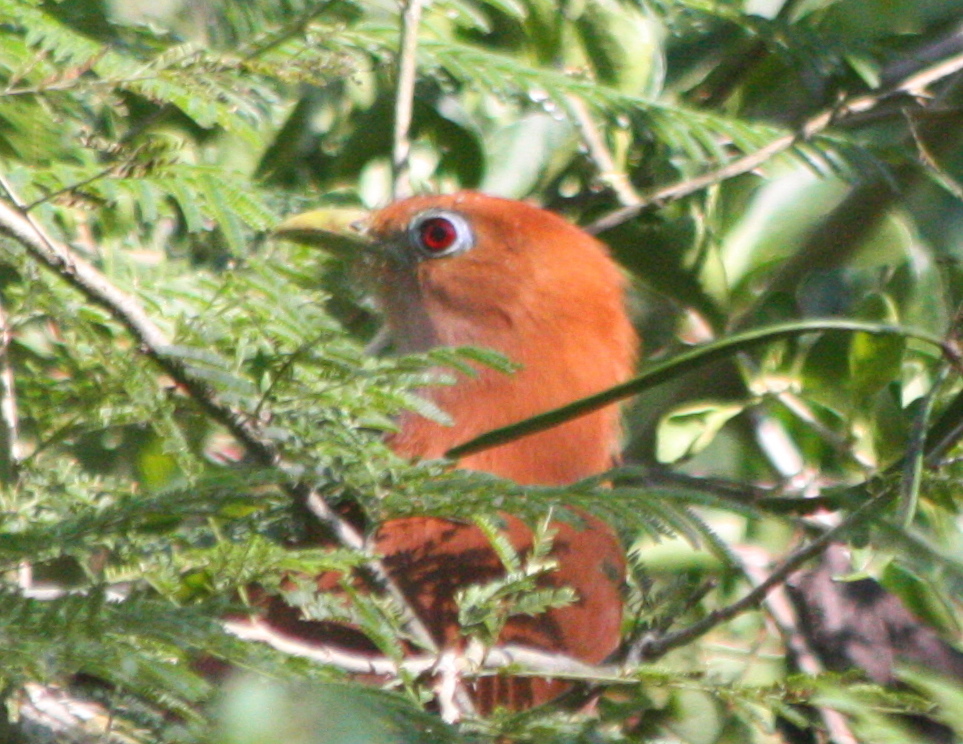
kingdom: Animalia
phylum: Chordata
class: Aves
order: Cuculiformes
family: Cuculidae
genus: Piaya
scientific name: Piaya cayana
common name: Squirrel cuckoo
